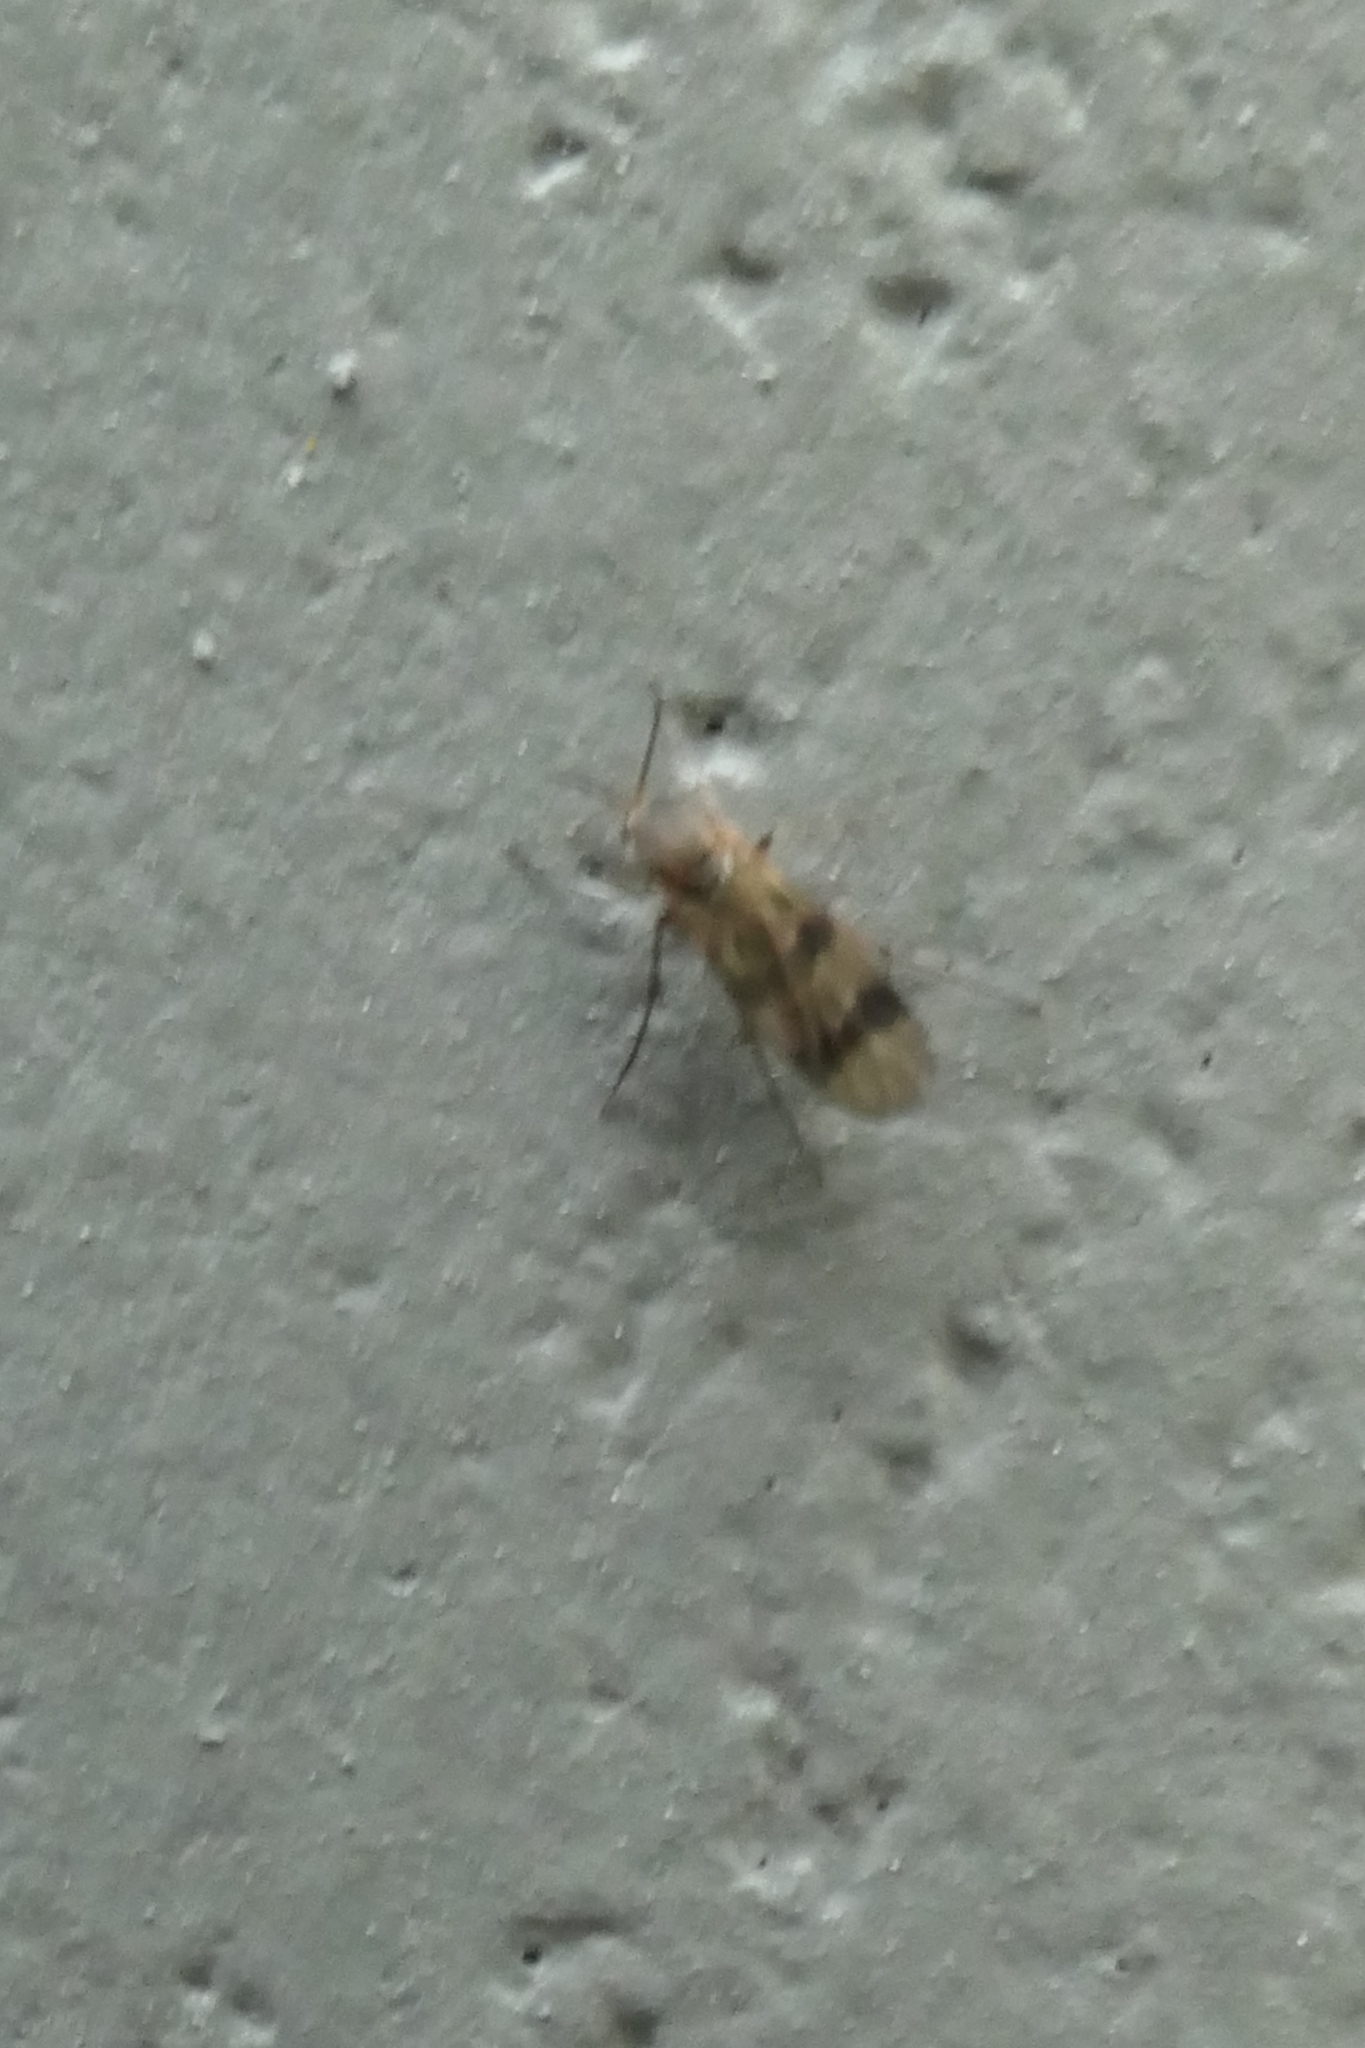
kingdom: Animalia
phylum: Arthropoda
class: Insecta
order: Diptera
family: Mycetophilidae
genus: Mycetophila
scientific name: Mycetophila latifascia
